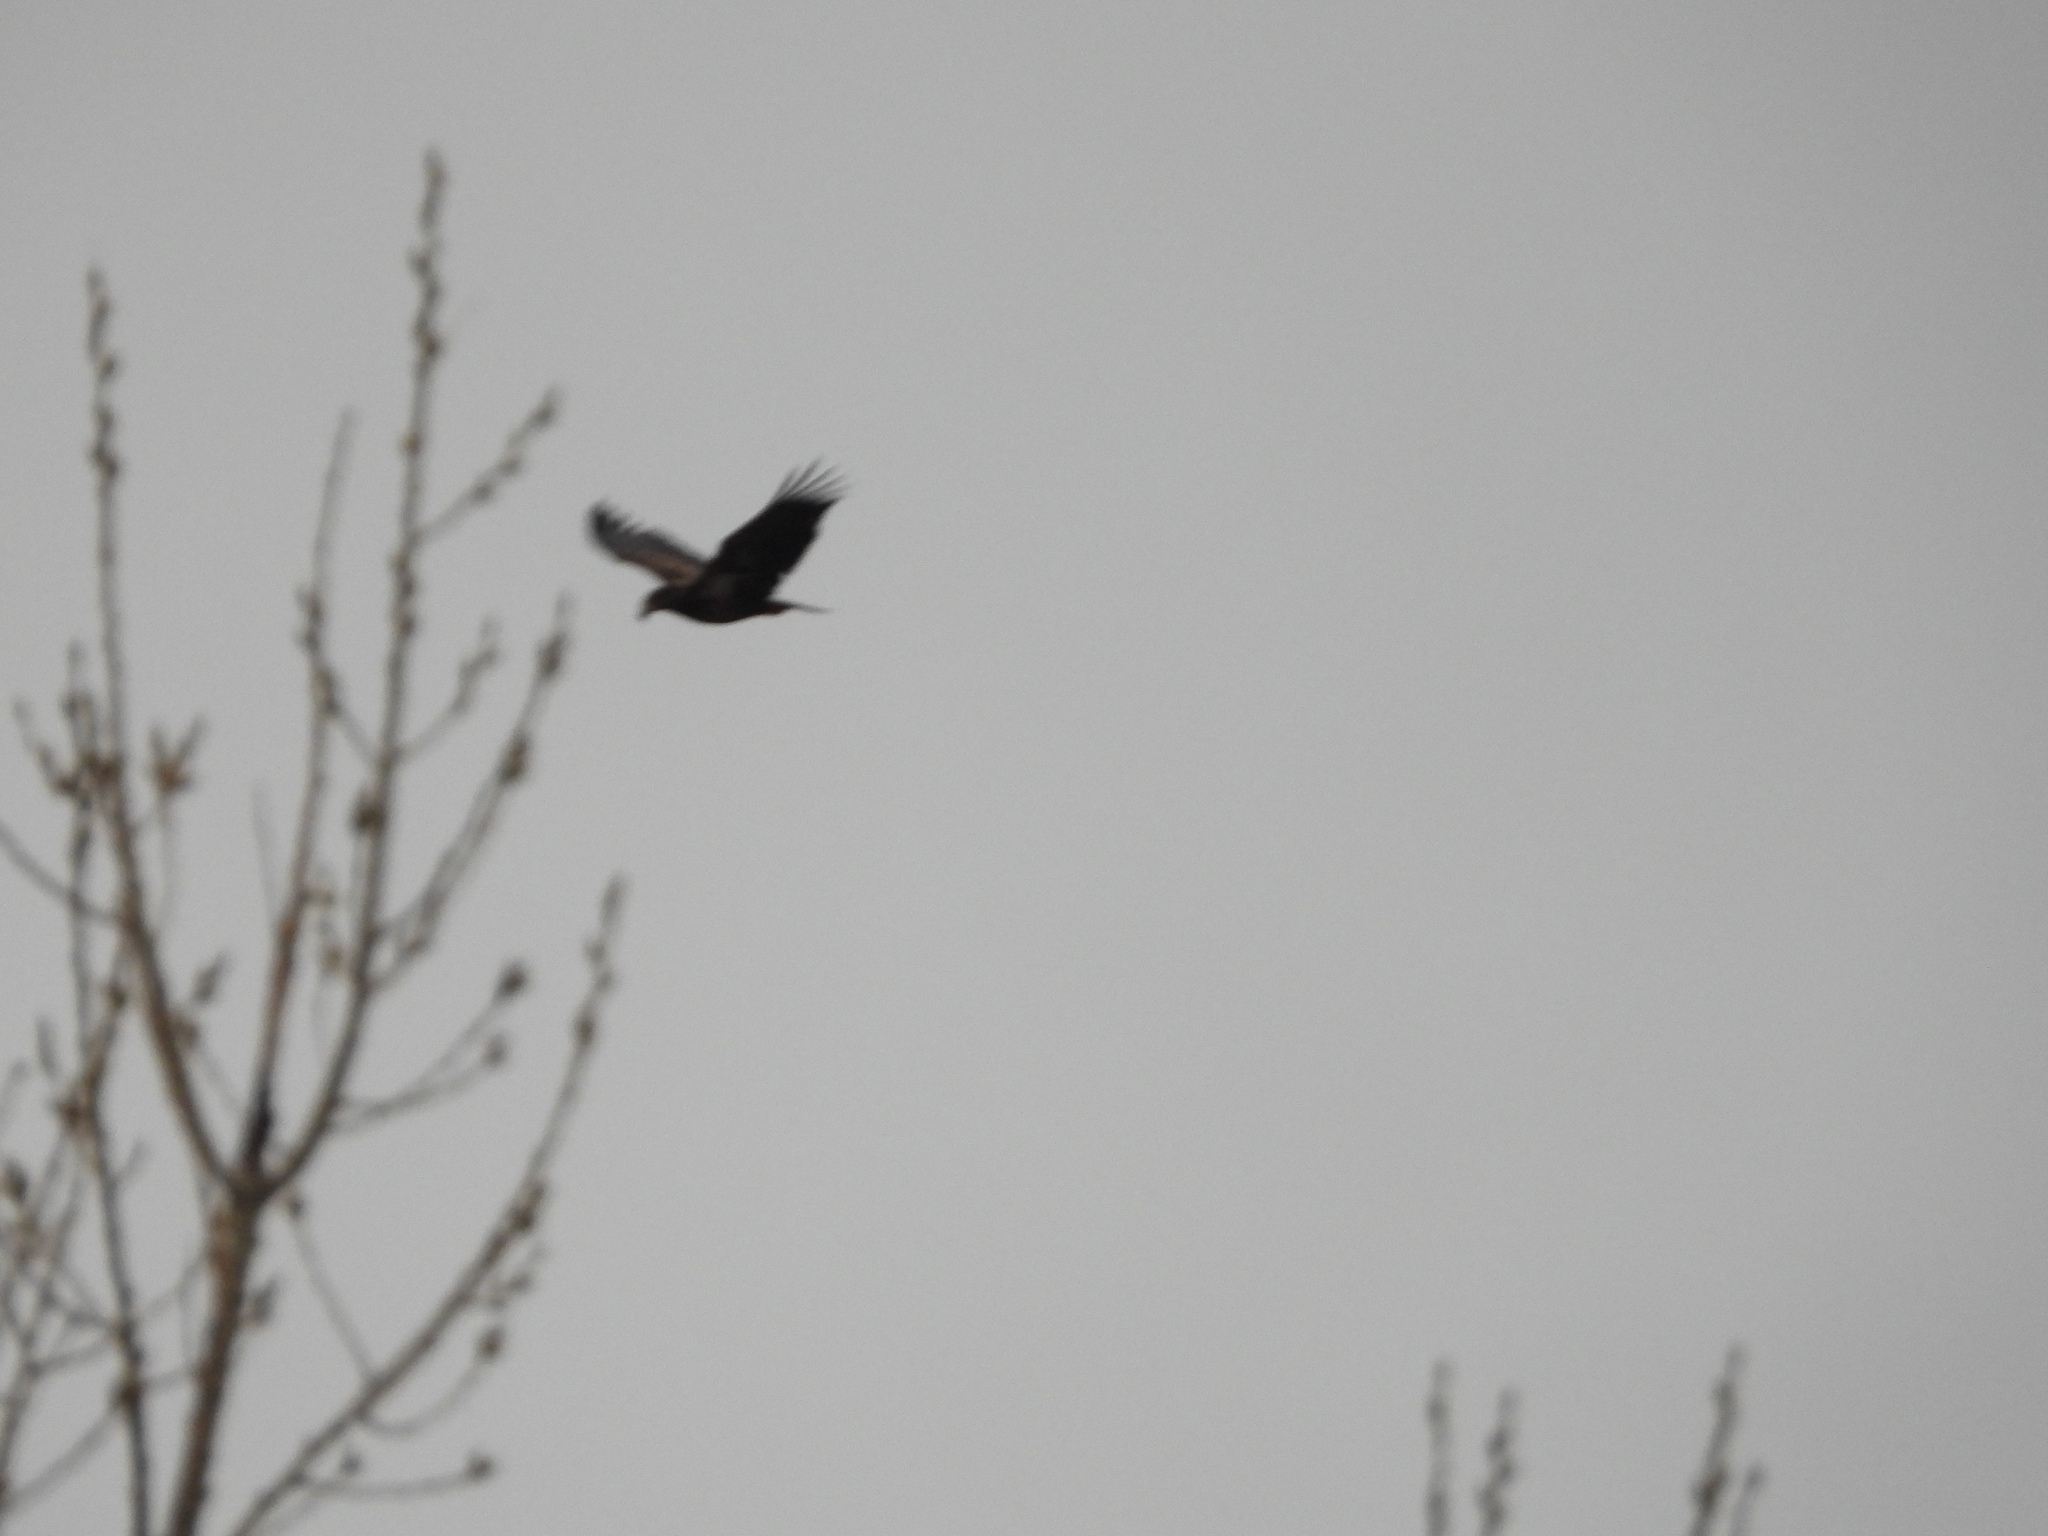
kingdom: Animalia
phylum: Chordata
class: Aves
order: Accipitriformes
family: Accipitridae
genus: Haliaeetus
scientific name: Haliaeetus leucocephalus
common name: Bald eagle
